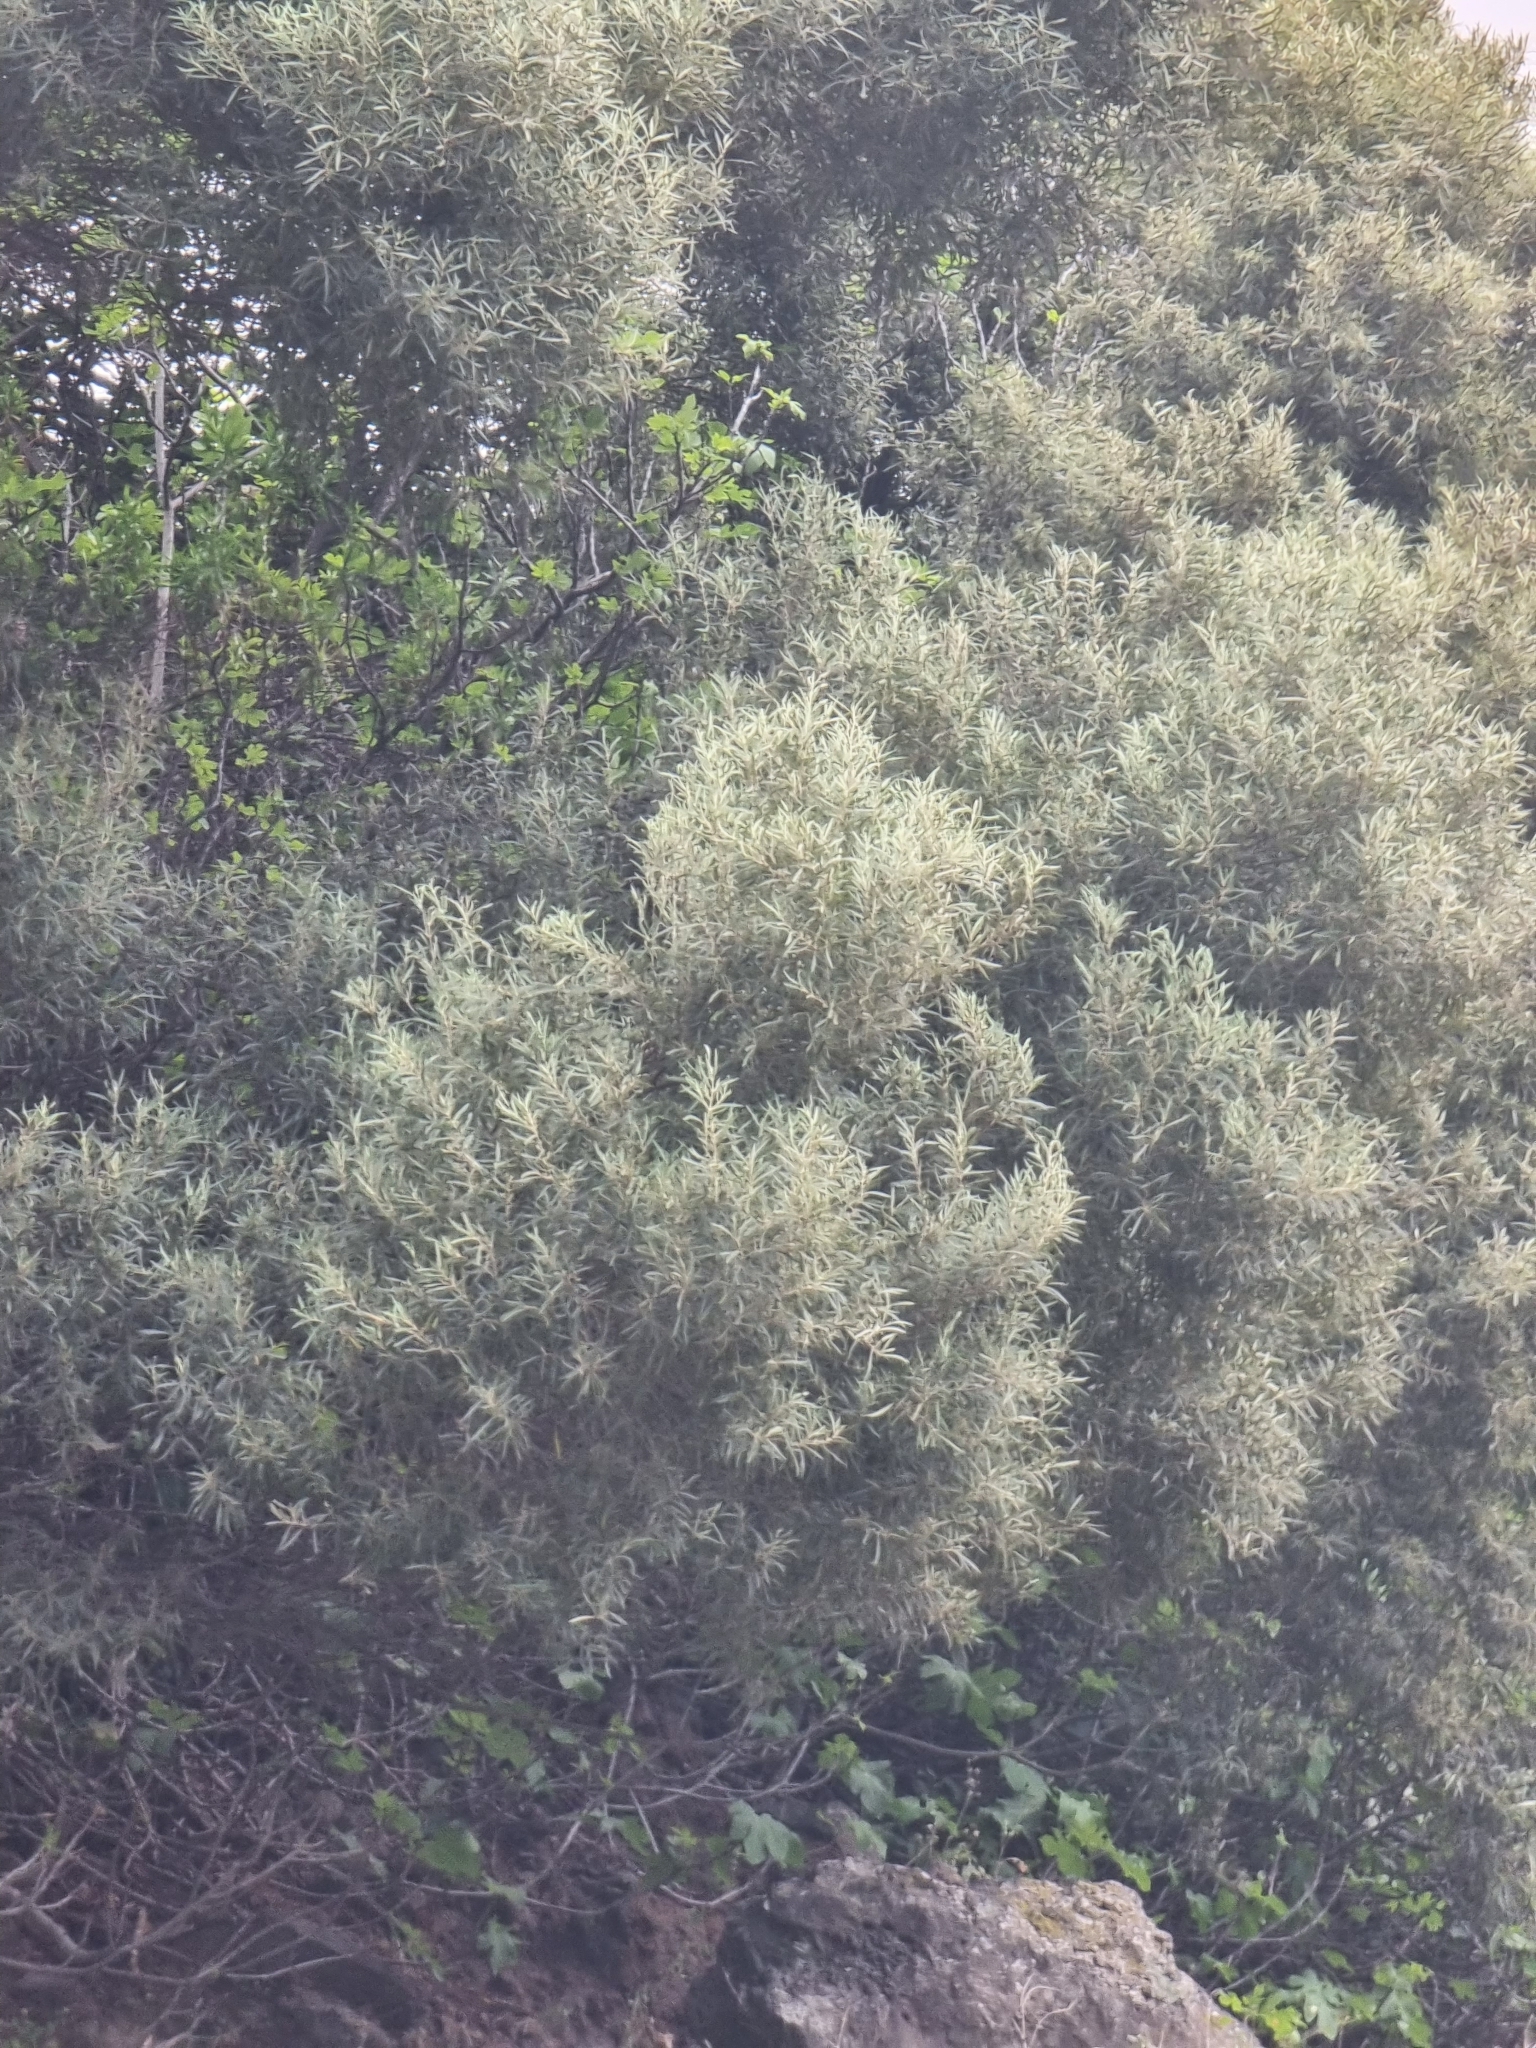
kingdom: Plantae
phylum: Tracheophyta
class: Magnoliopsida
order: Lamiales
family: Oleaceae
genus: Olea
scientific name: Olea europaea
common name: Olive
